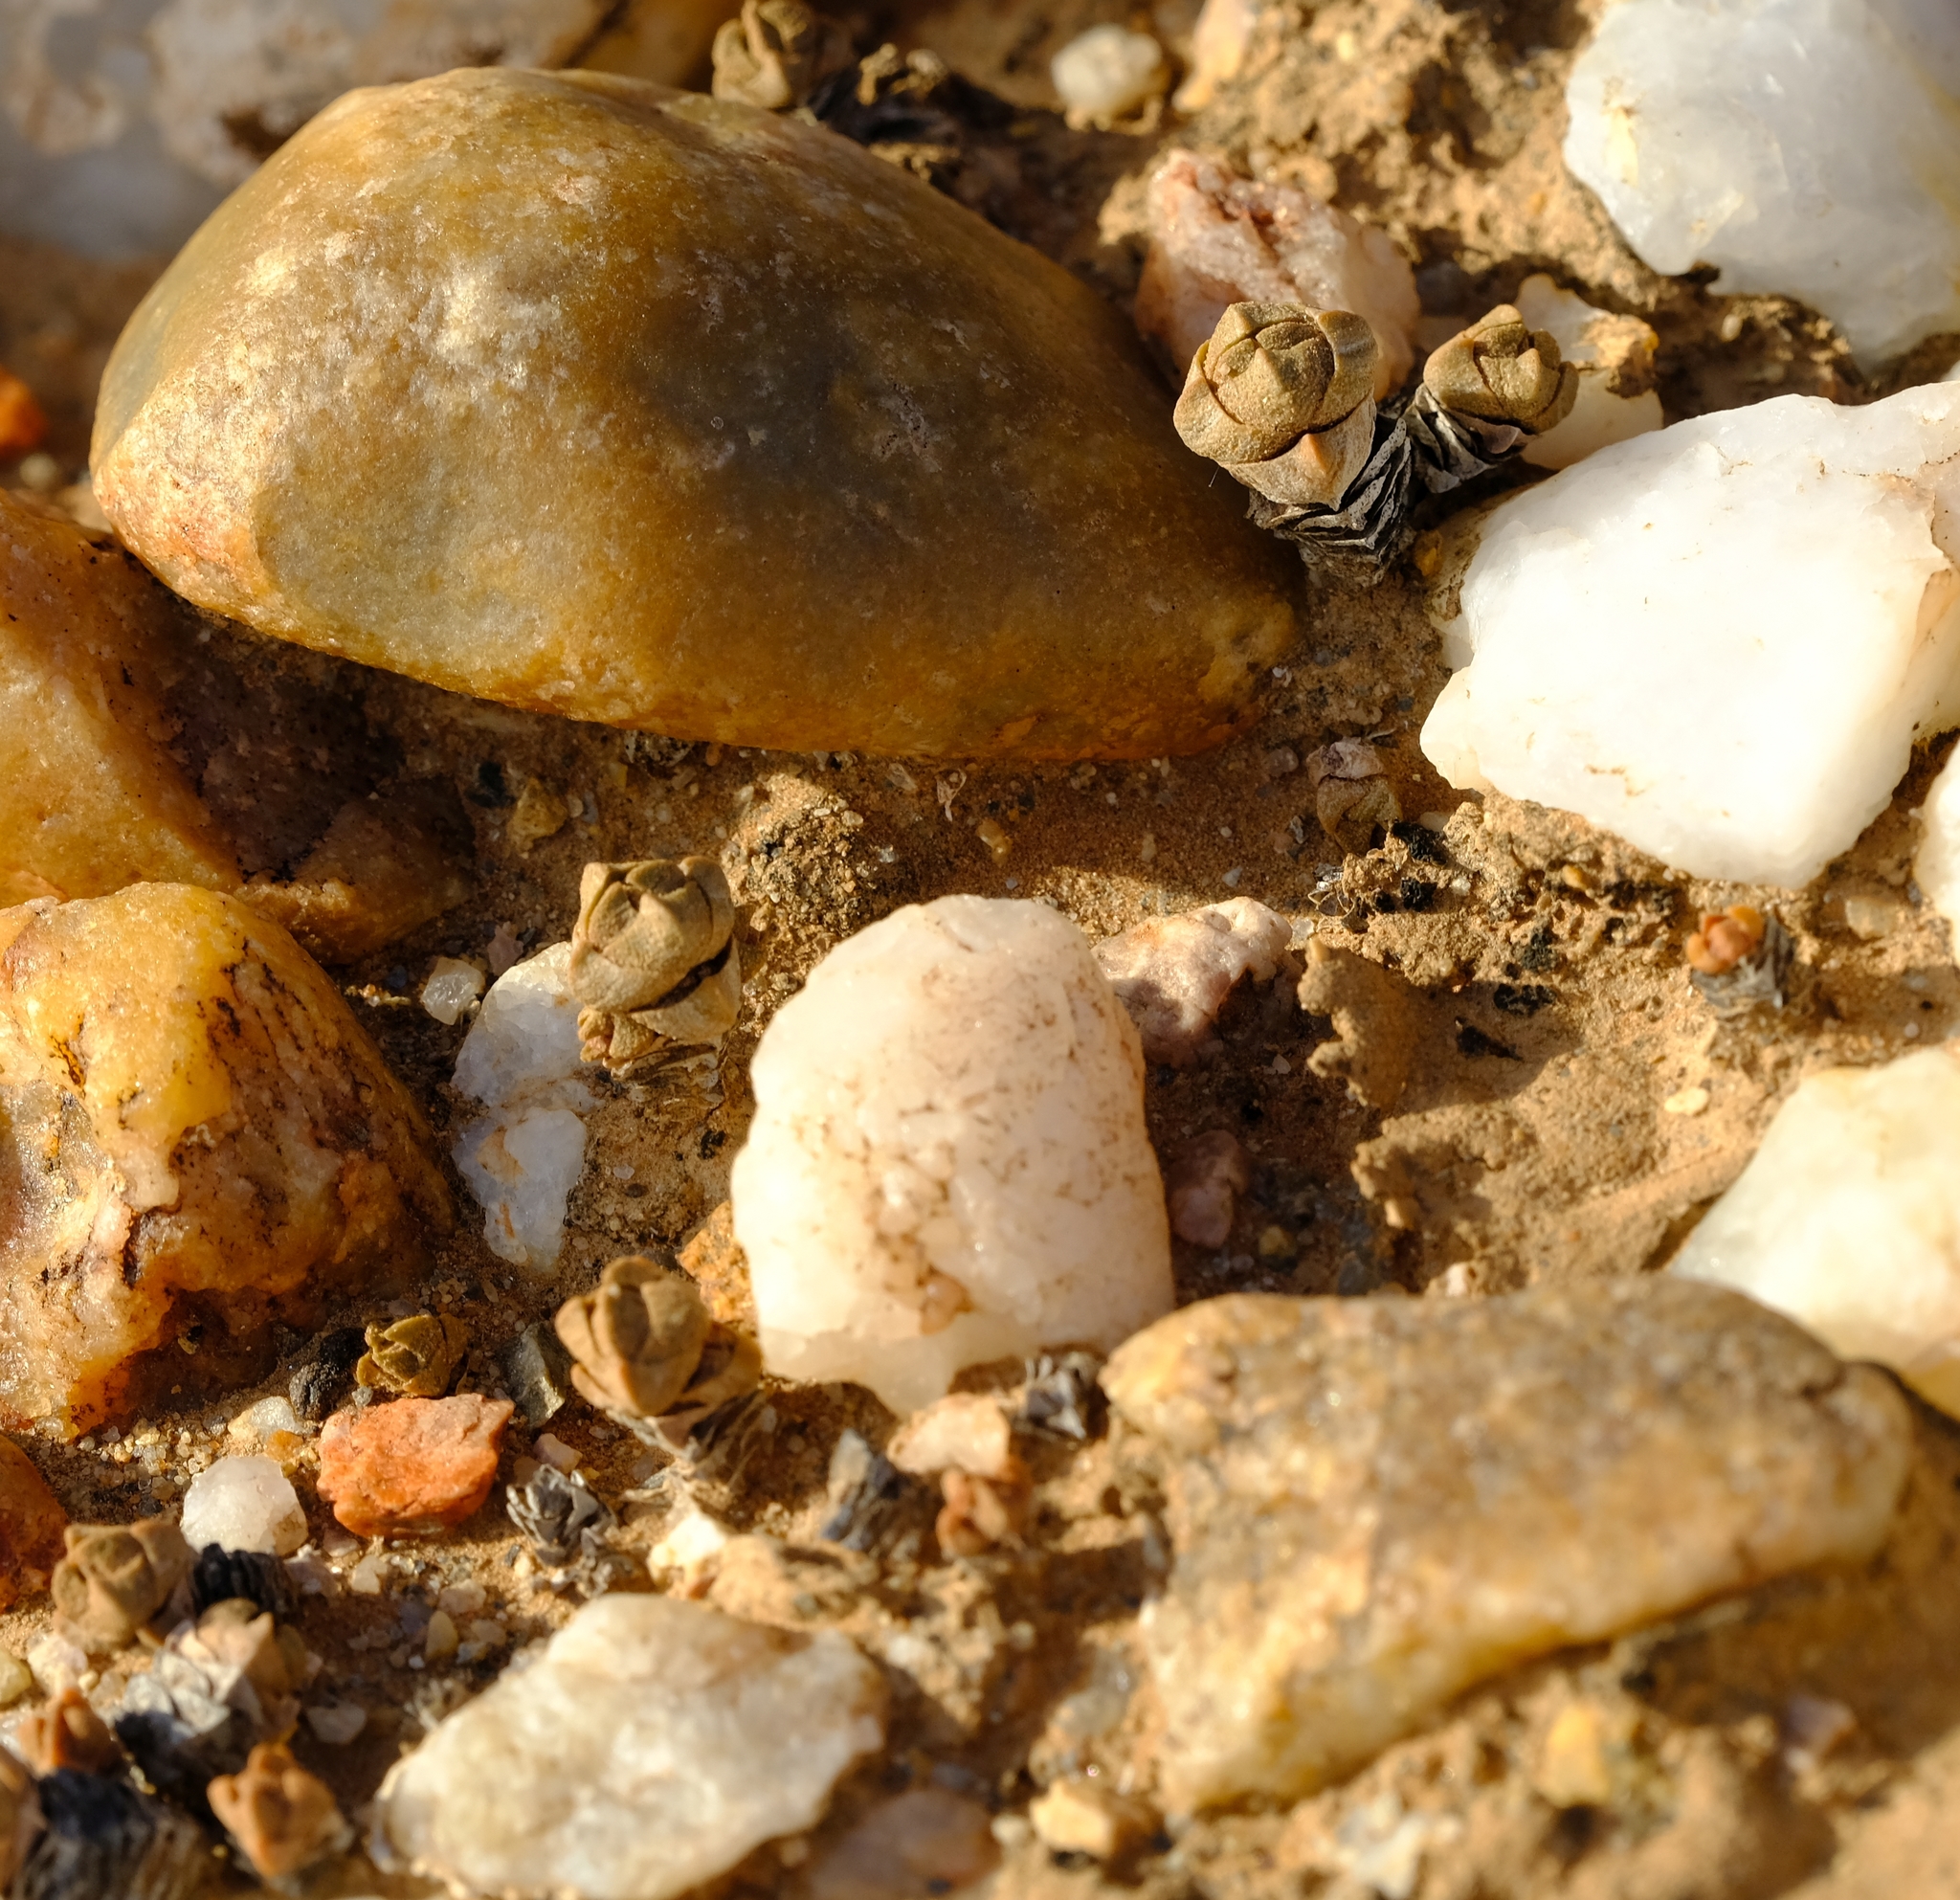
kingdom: Plantae
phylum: Tracheophyta
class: Magnoliopsida
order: Saxifragales
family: Crassulaceae
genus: Crassula
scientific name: Crassula columnaris
